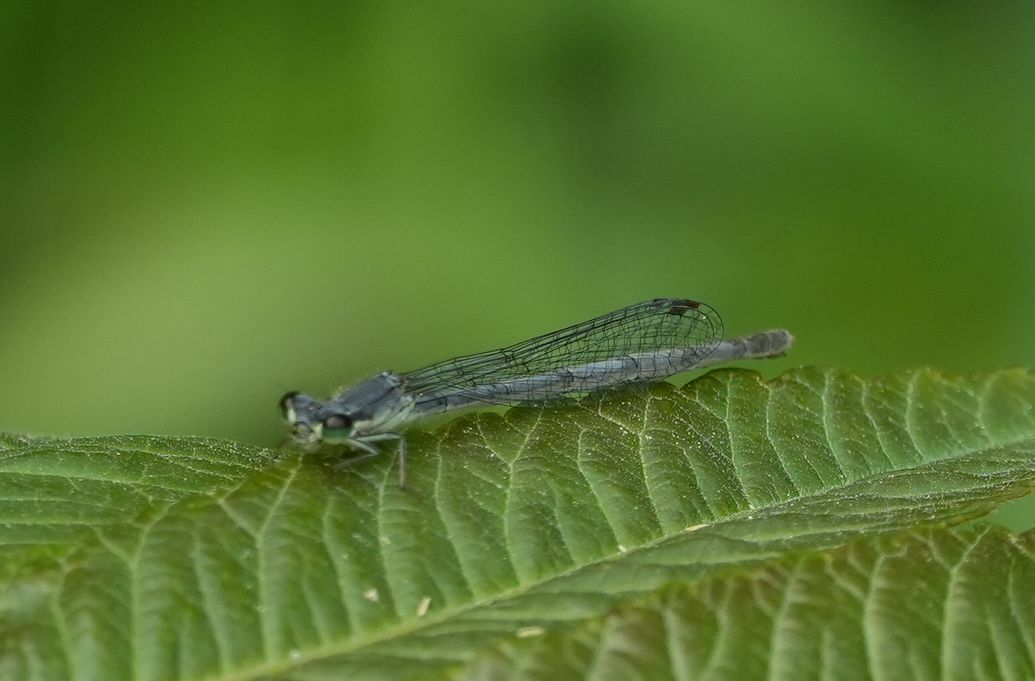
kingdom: Animalia
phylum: Arthropoda
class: Insecta
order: Odonata
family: Coenagrionidae
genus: Ischnura
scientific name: Ischnura verticalis
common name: Eastern forktail
